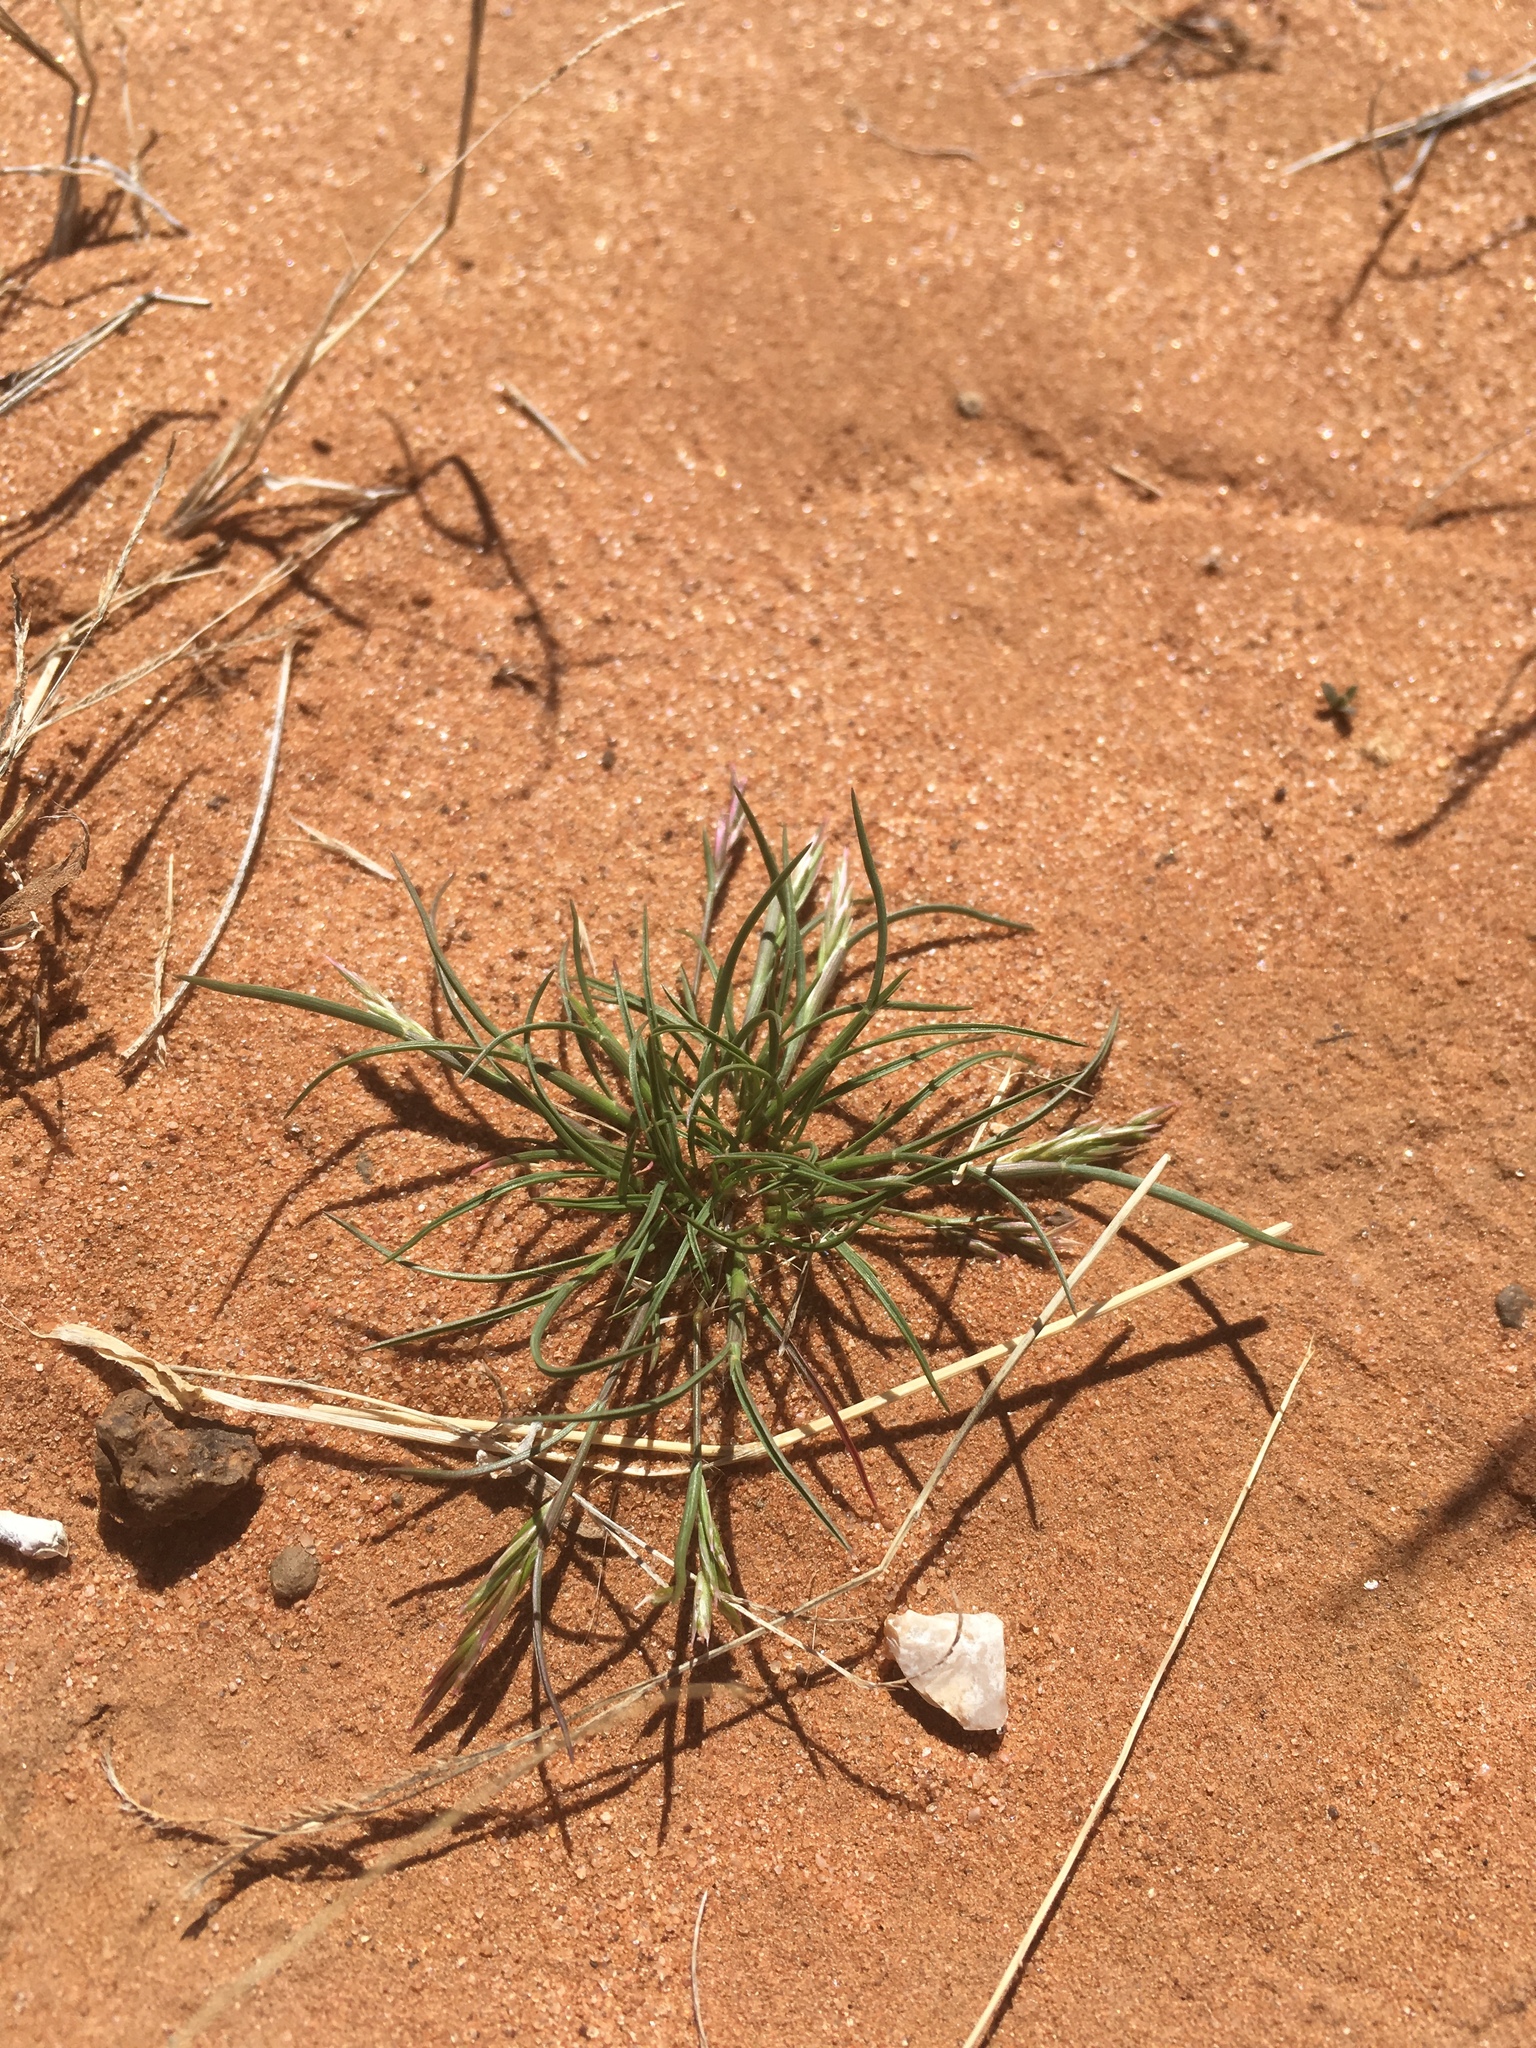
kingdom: Plantae
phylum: Tracheophyta
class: Liliopsida
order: Poales
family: Poaceae
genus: Schismus
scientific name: Schismus arabicus
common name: Arabian schismus
